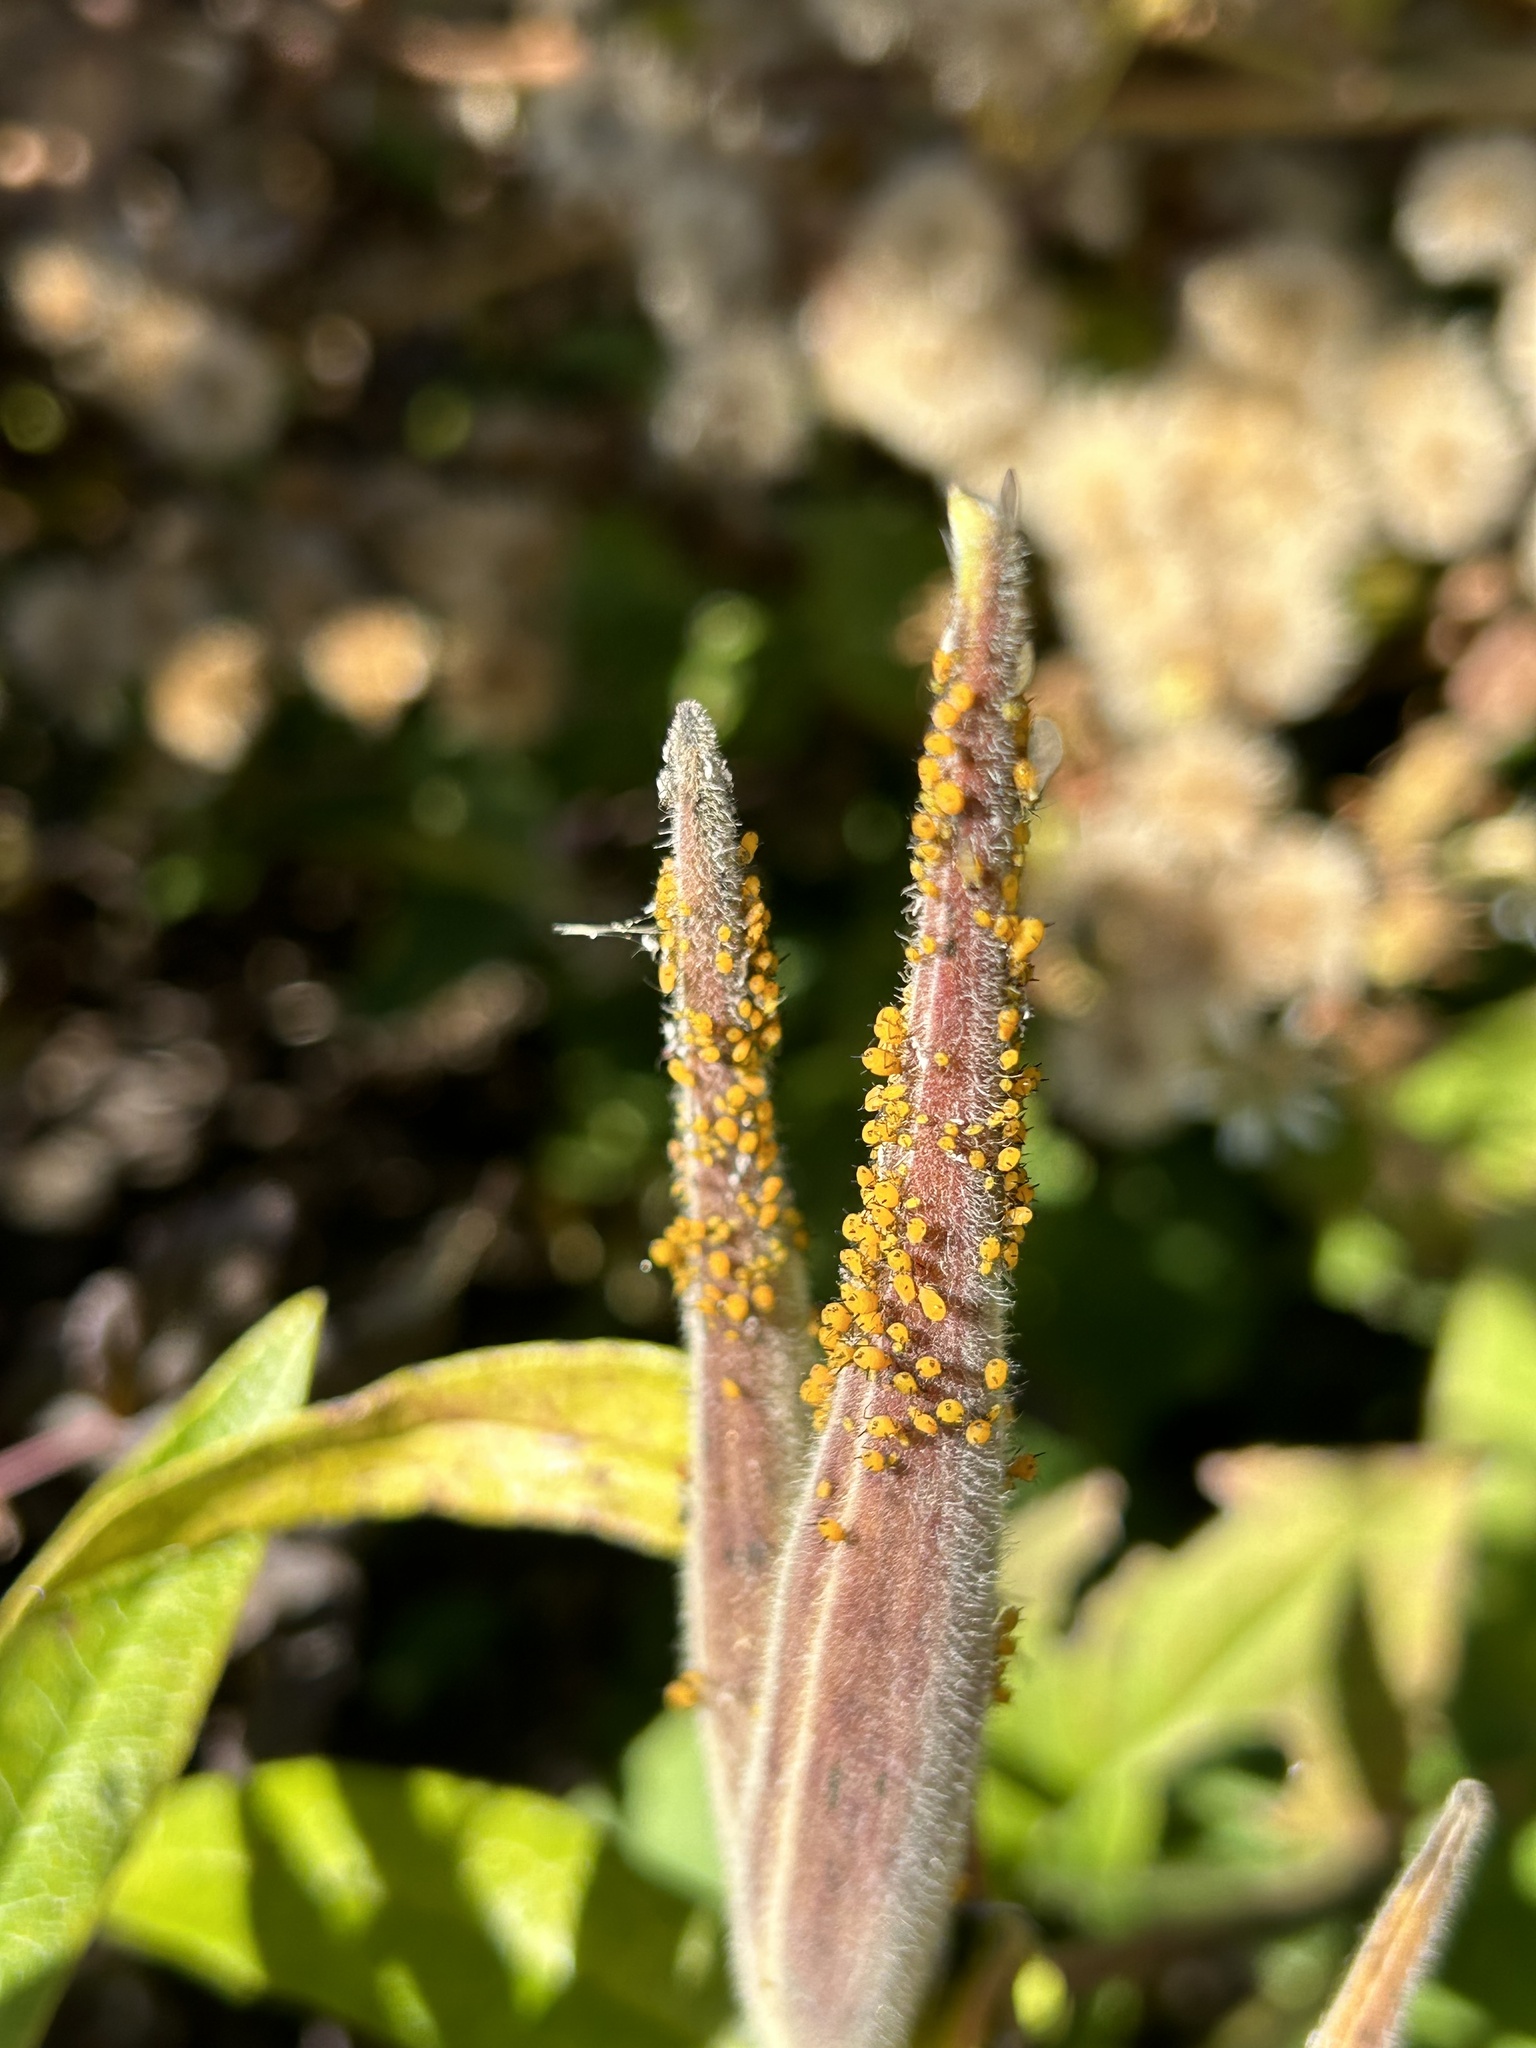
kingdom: Animalia
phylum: Arthropoda
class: Insecta
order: Hemiptera
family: Aphididae
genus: Aphis
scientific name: Aphis nerii
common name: Oleander aphid
